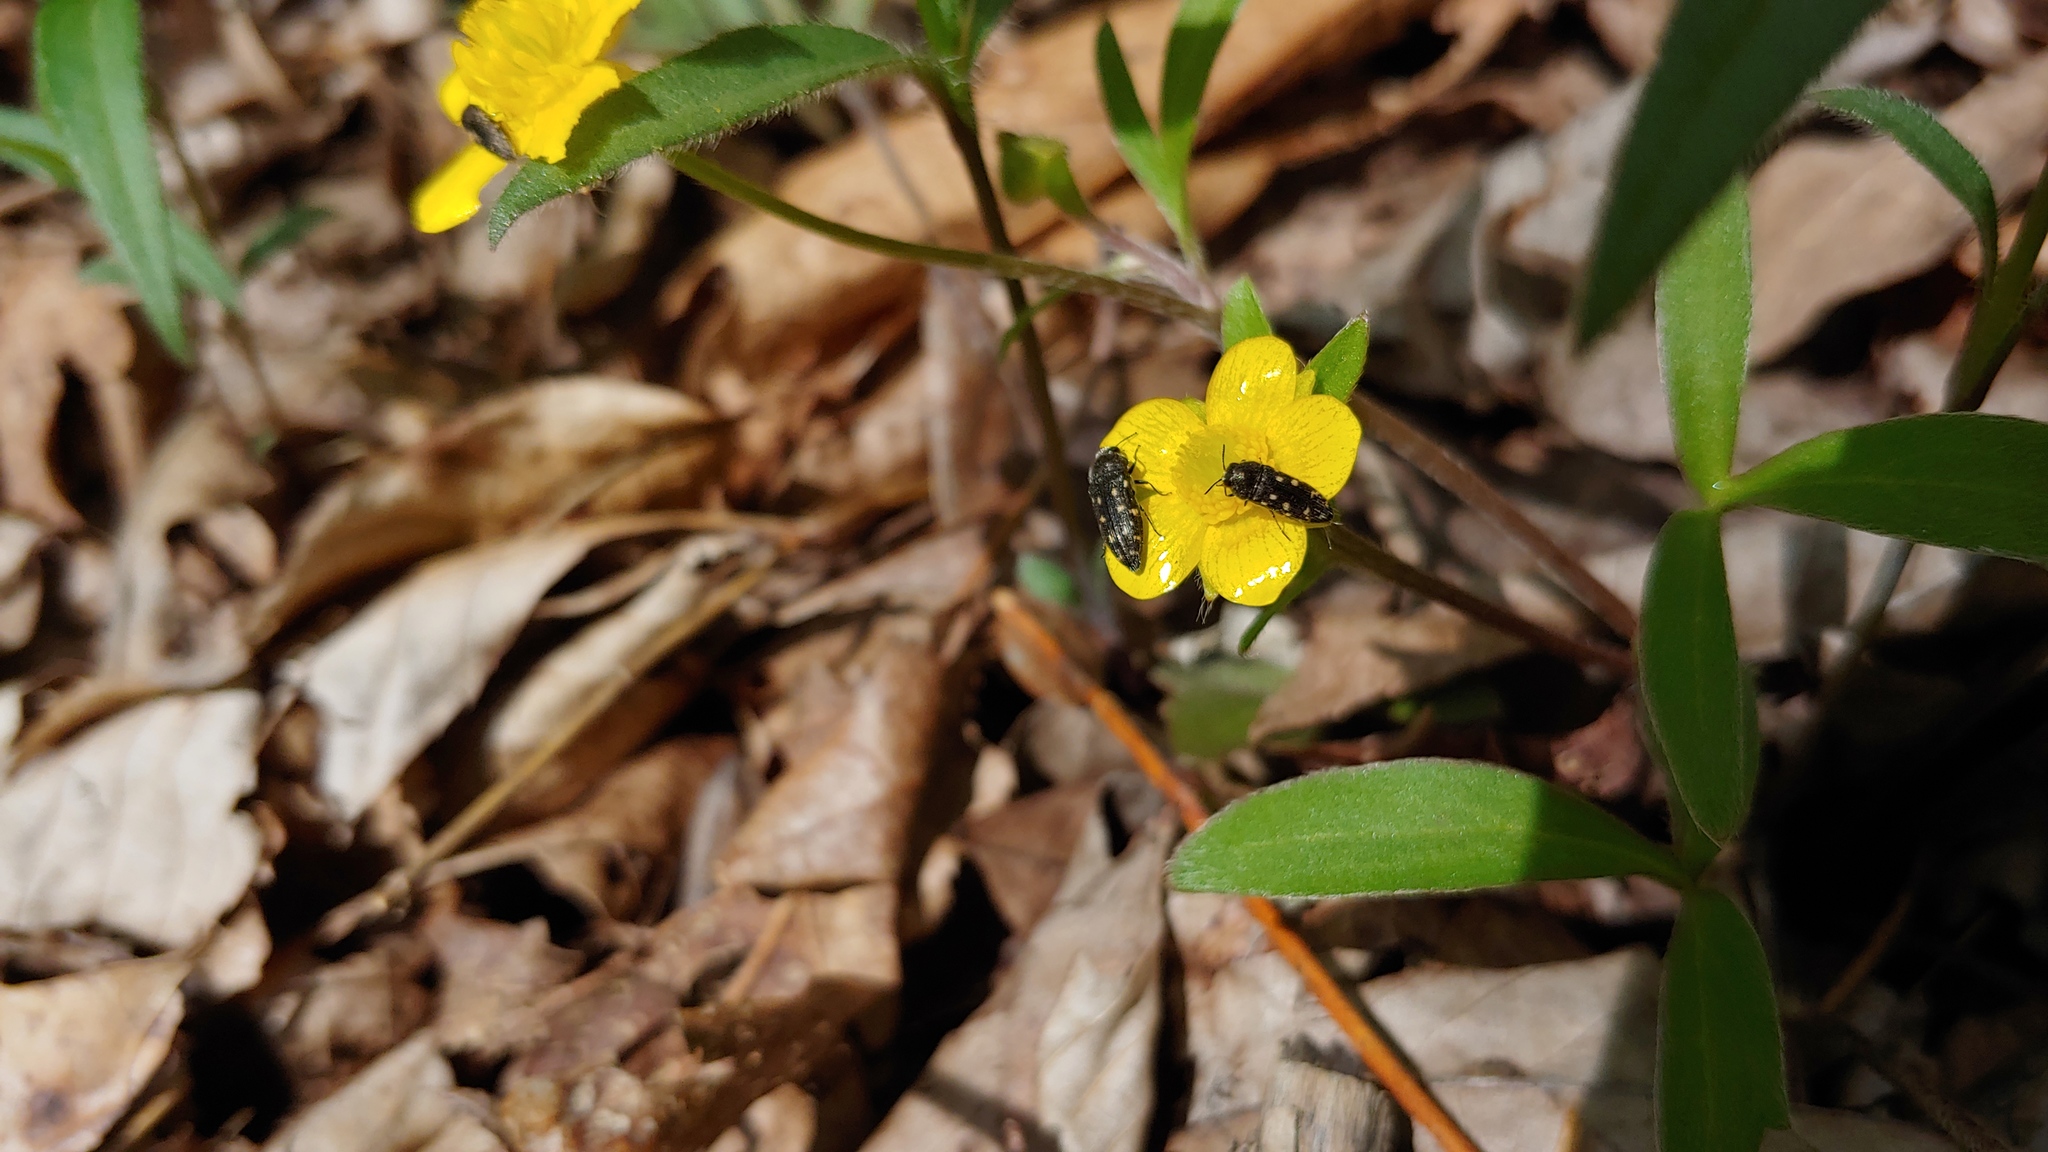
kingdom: Animalia
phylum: Arthropoda
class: Insecta
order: Coleoptera
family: Buprestidae
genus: Acmaeodera
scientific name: Acmaeodera tubulus
